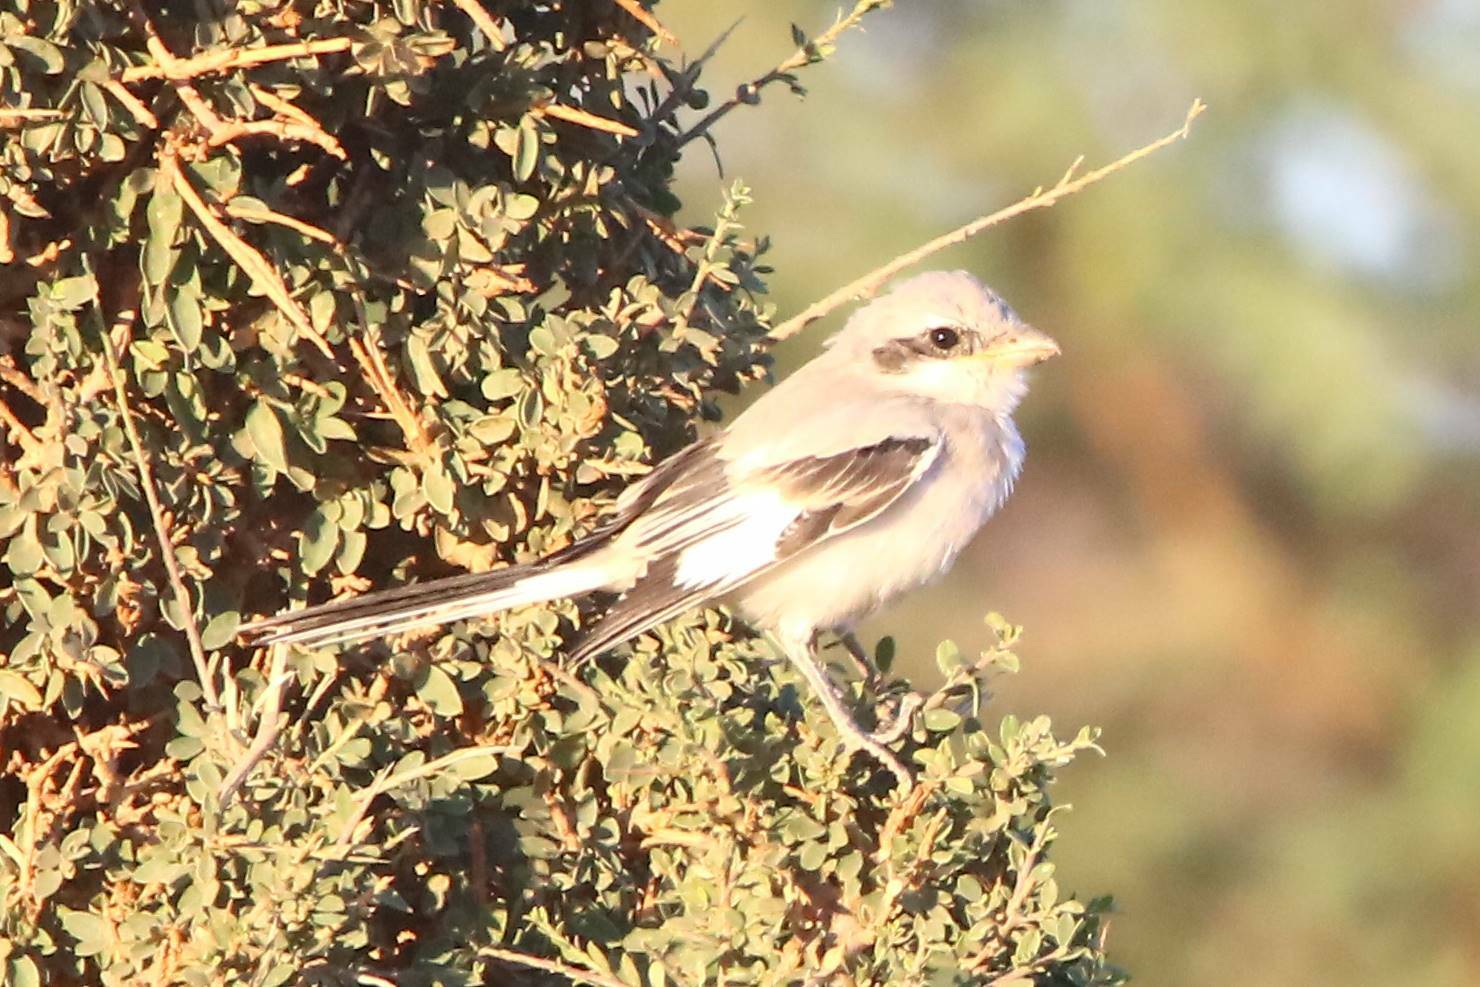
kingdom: Animalia
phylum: Chordata
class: Aves
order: Passeriformes
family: Laniidae
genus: Lanius
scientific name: Lanius excubitor
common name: Great grey shrike
